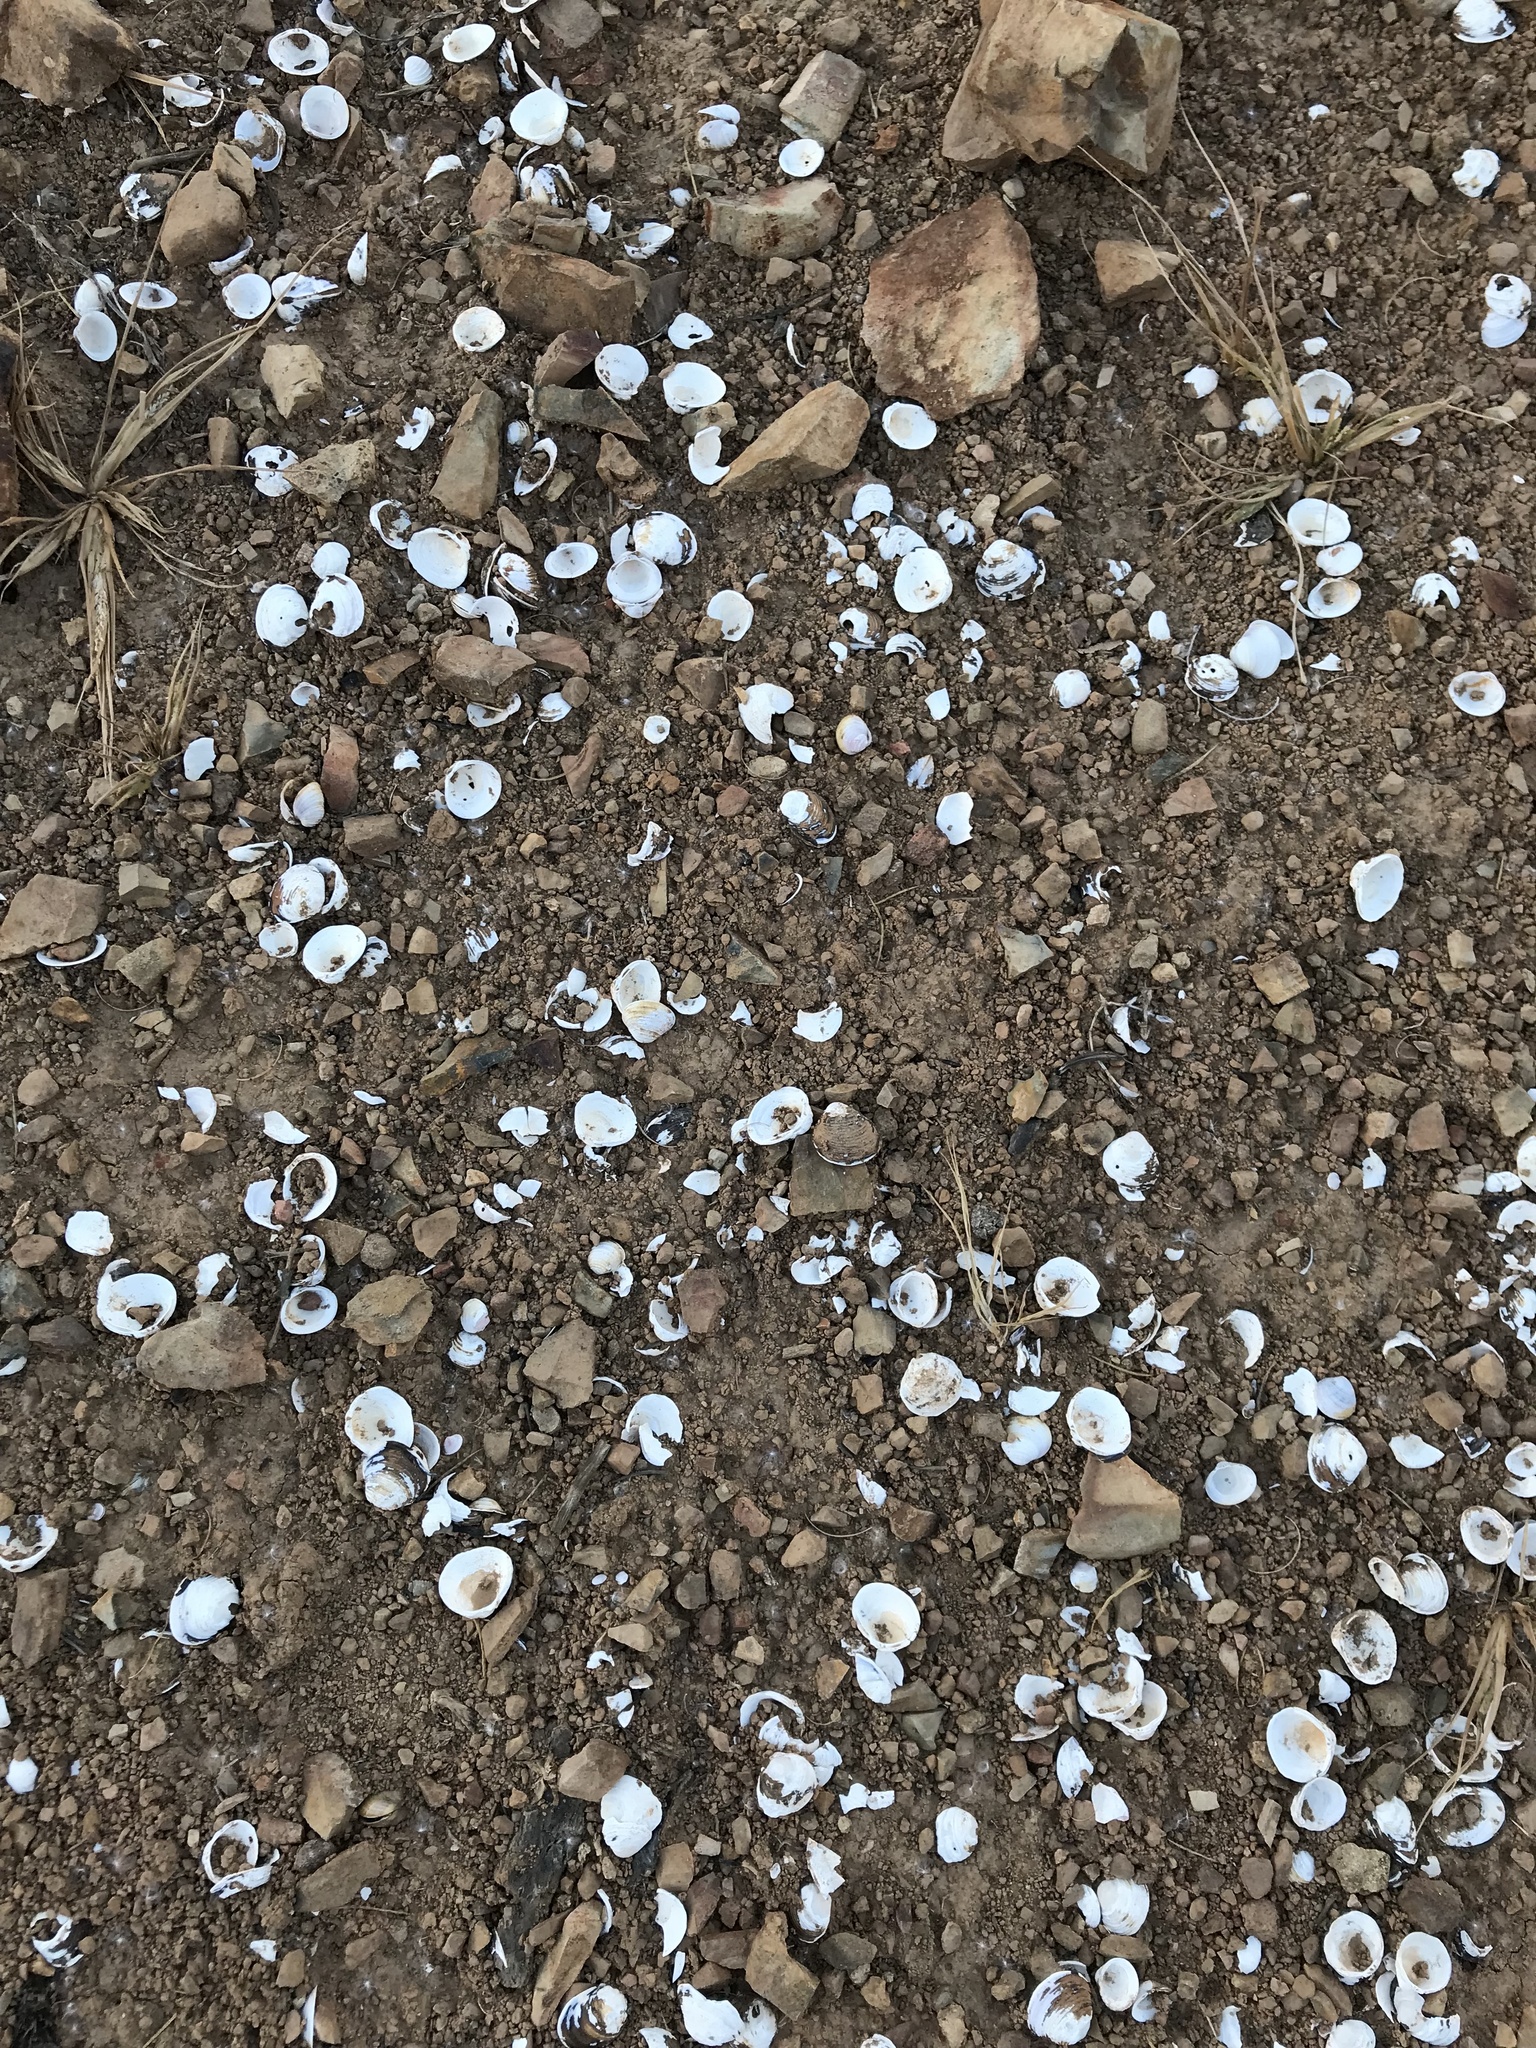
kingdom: Animalia
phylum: Mollusca
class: Bivalvia
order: Venerida
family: Cyrenidae
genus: Corbicula
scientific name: Corbicula fluminea
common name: Asian clam
